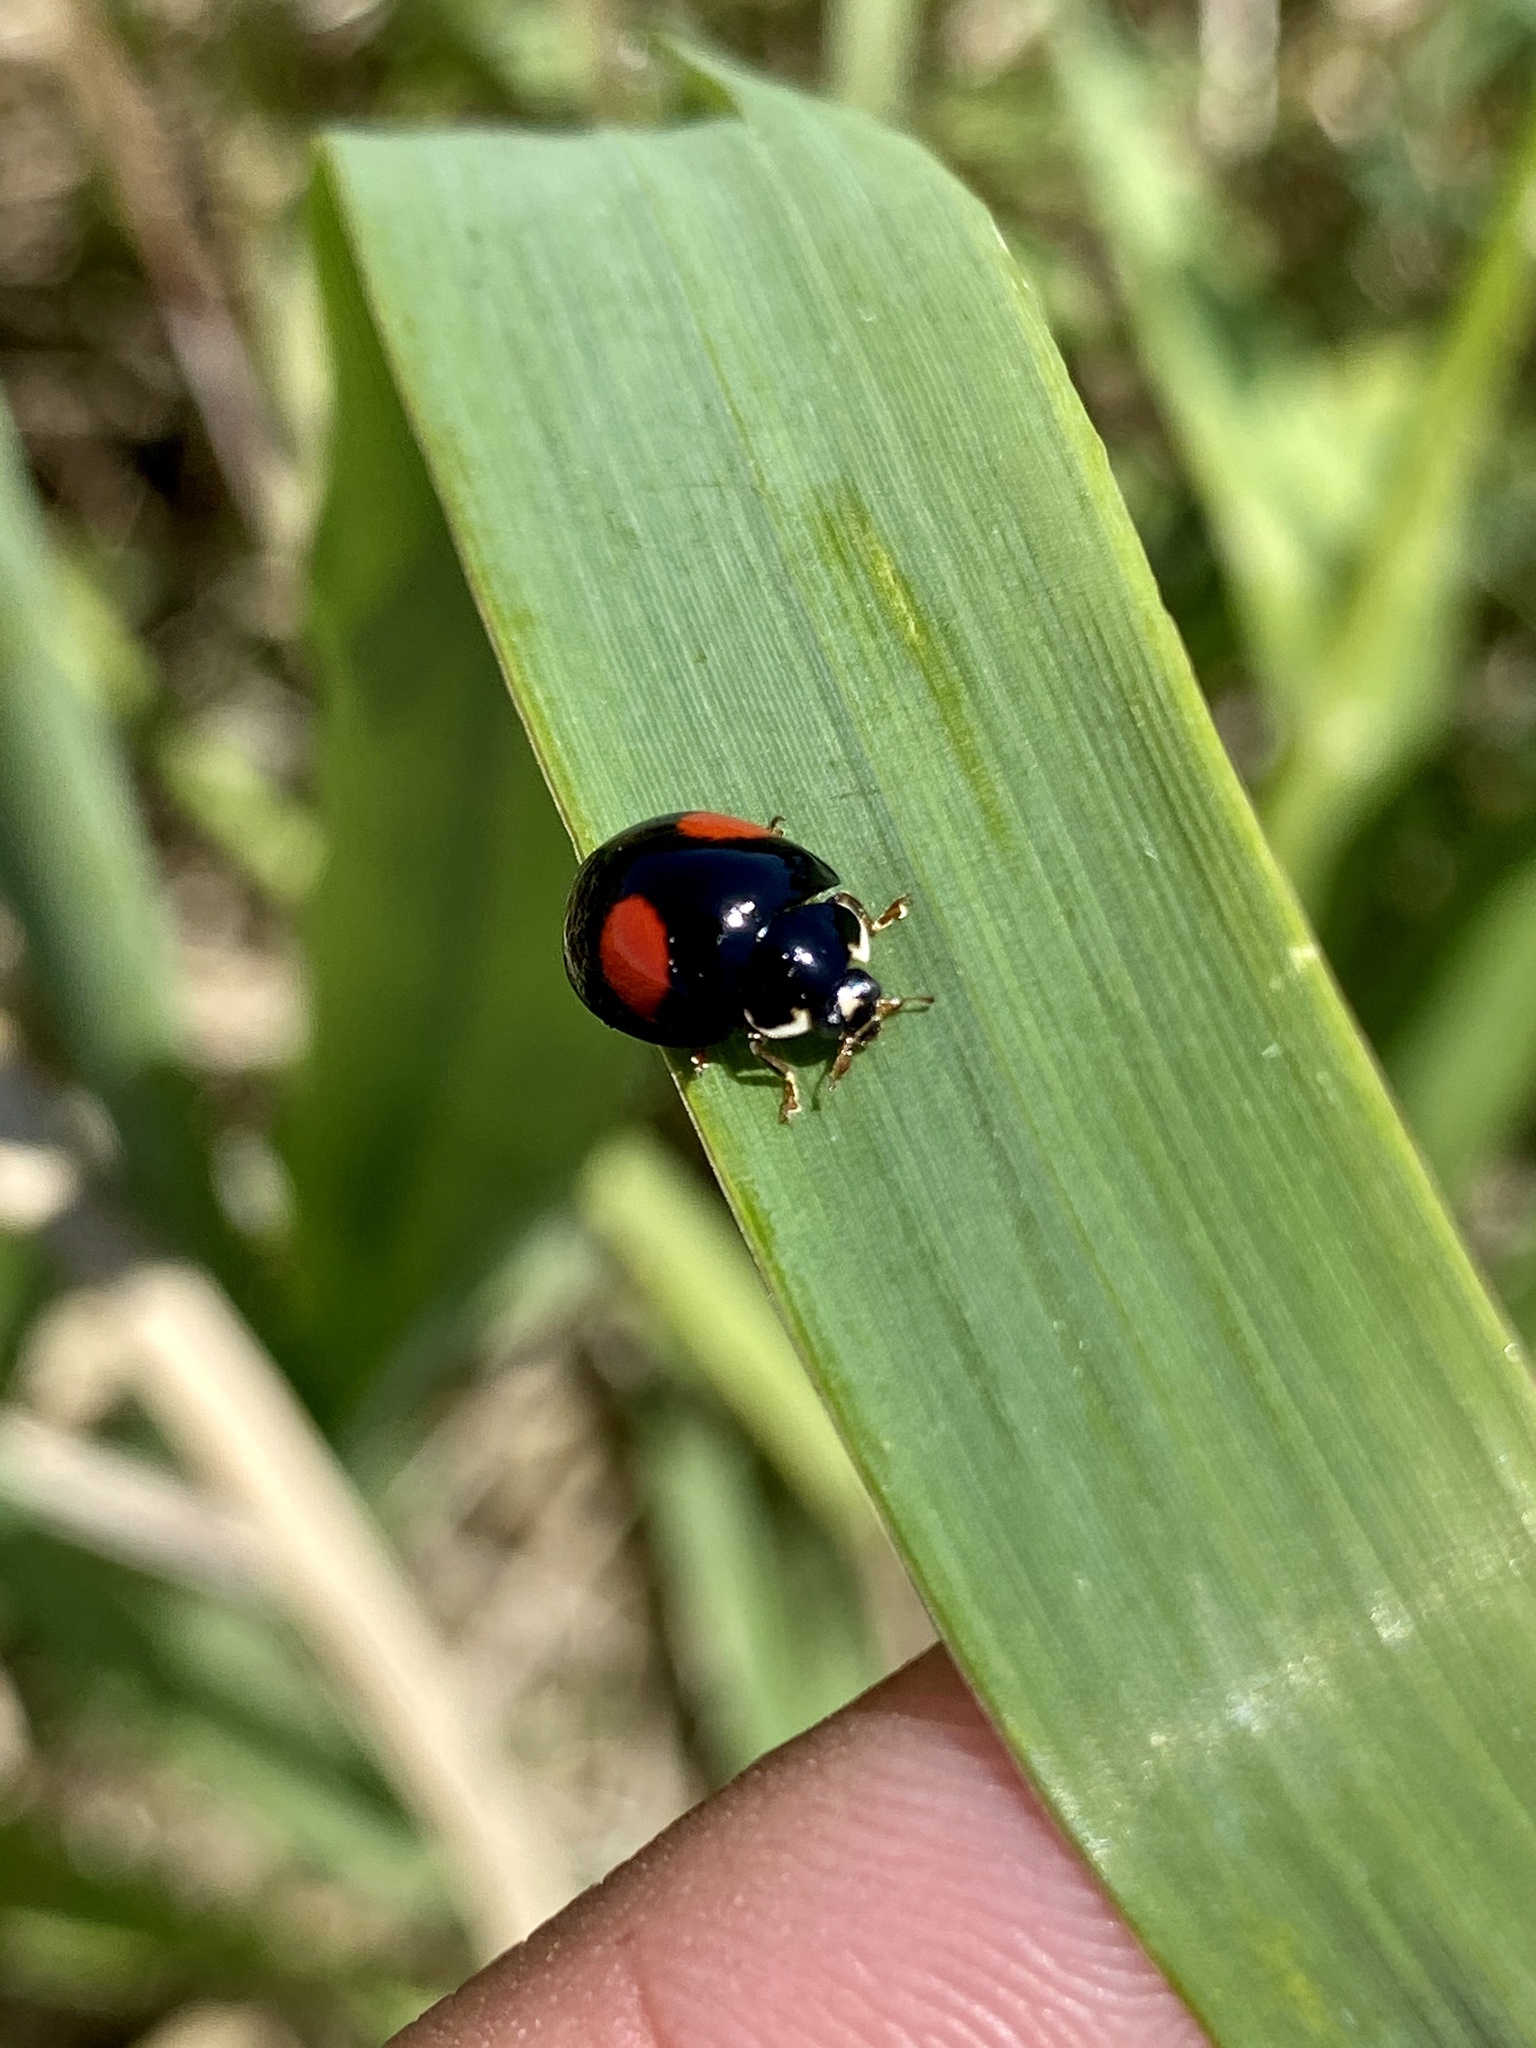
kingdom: Animalia
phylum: Arthropoda
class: Insecta
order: Coleoptera
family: Coccinellidae
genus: Harmonia
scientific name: Harmonia axyridis
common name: Harlequin ladybird
